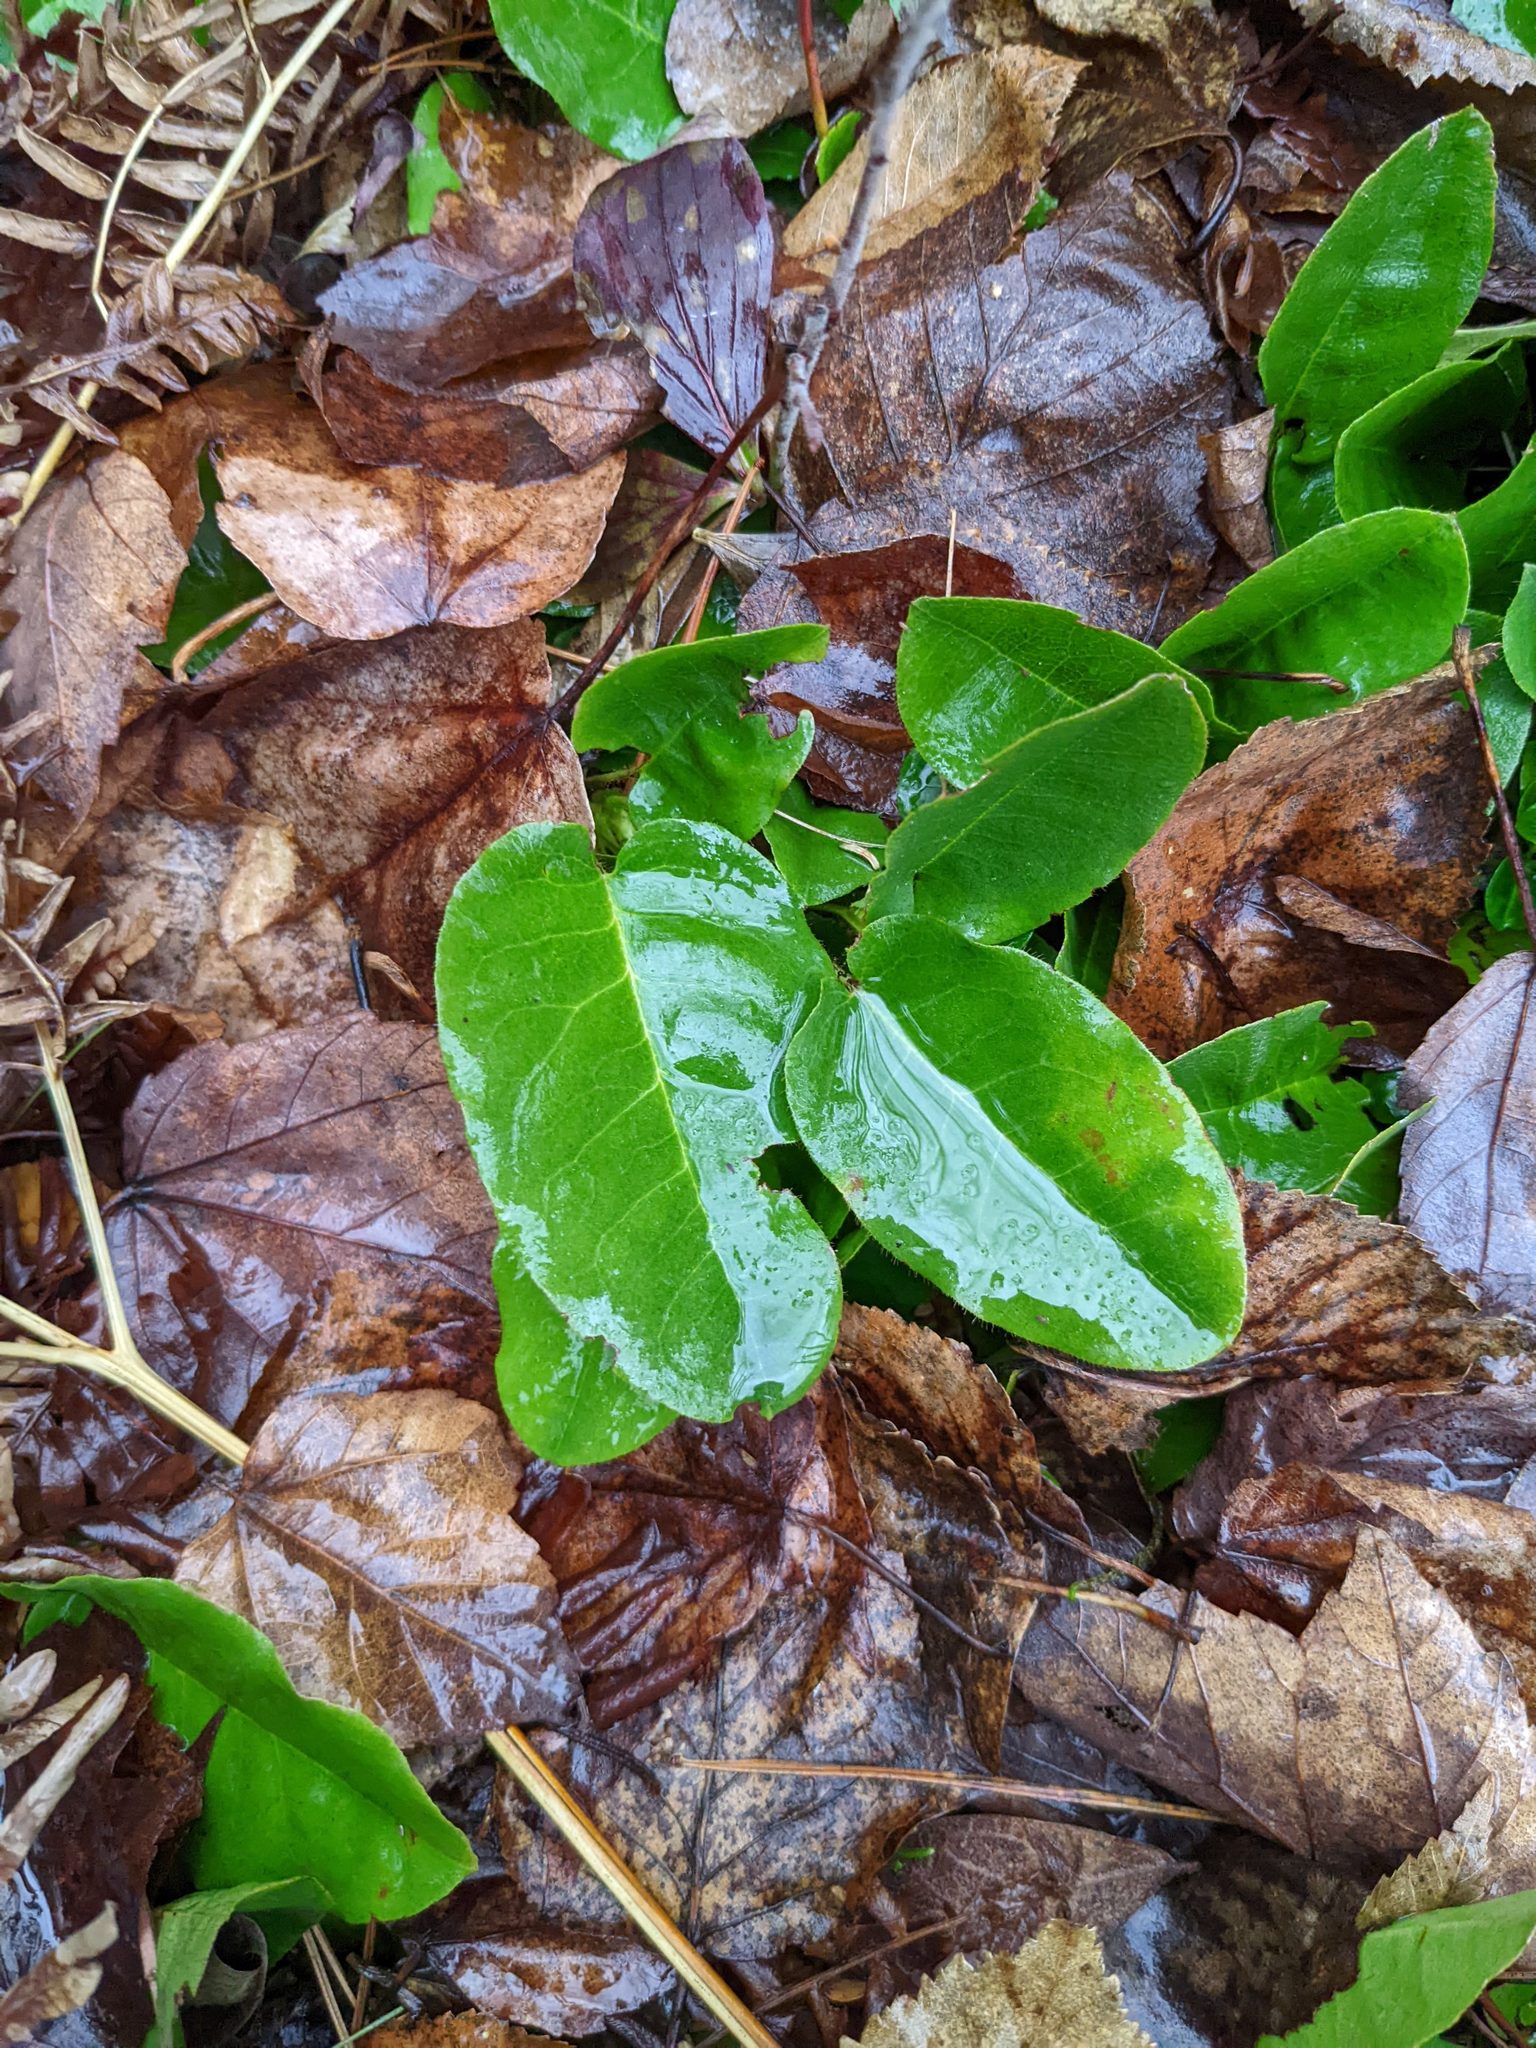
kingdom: Plantae
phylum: Tracheophyta
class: Magnoliopsida
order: Ericales
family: Ericaceae
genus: Epigaea
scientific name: Epigaea repens
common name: Gravelroot
